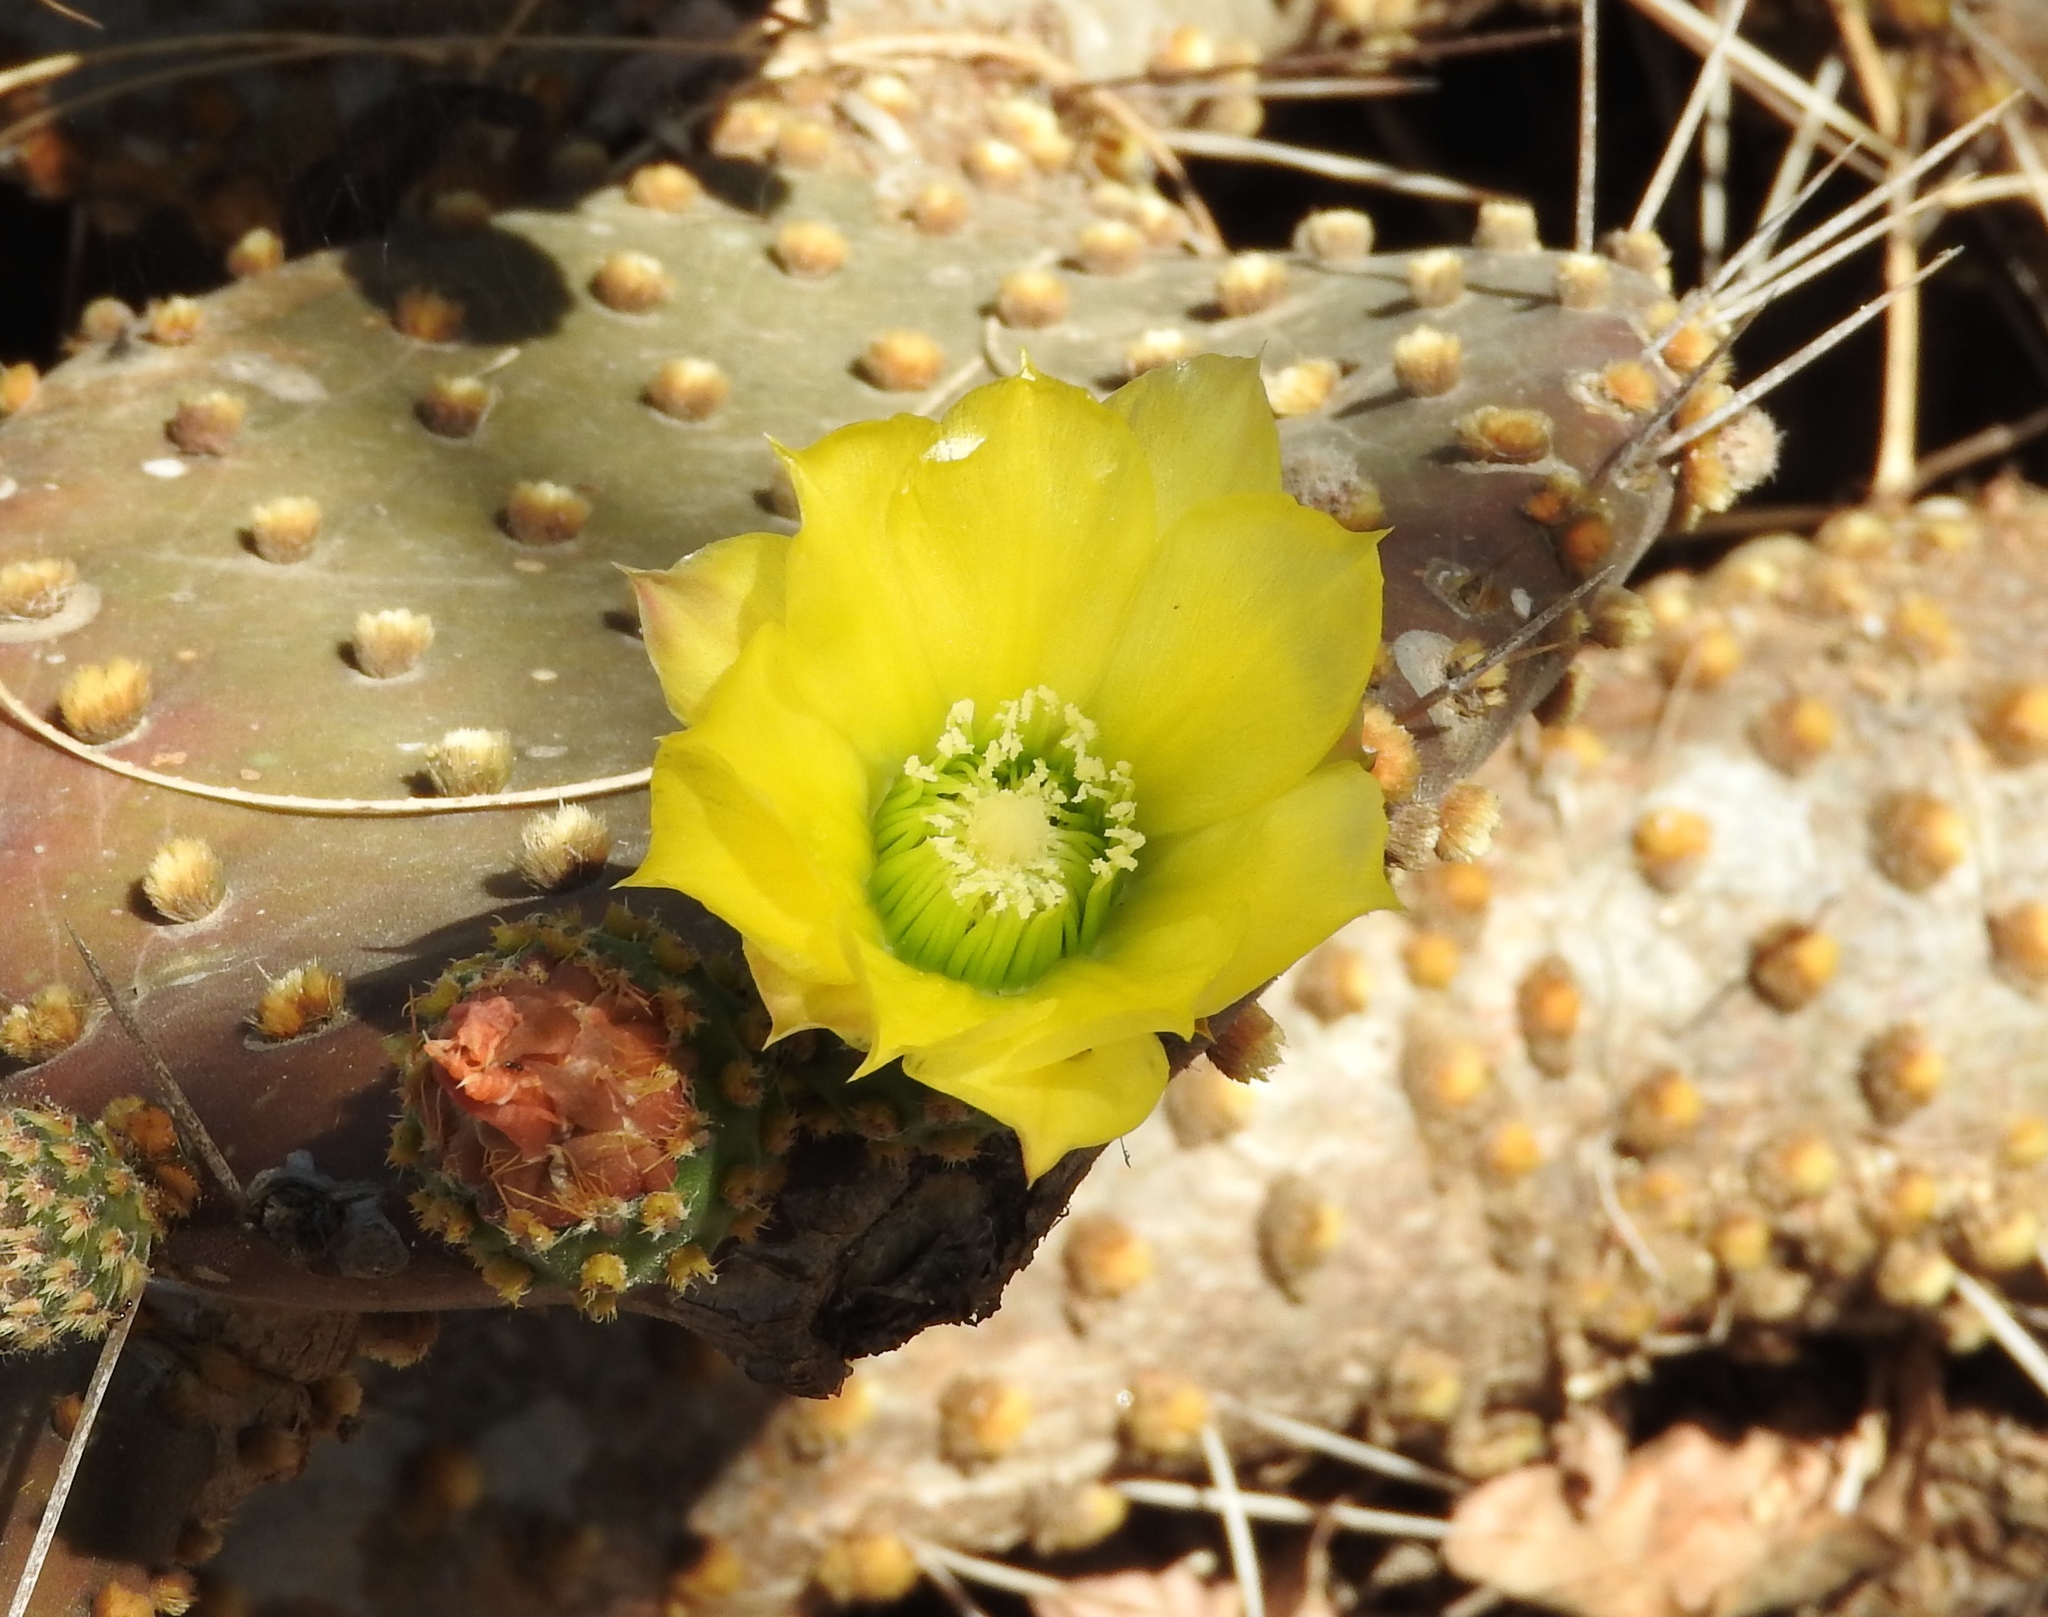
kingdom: Plantae
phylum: Tracheophyta
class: Magnoliopsida
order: Caryophyllales
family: Cactaceae
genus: Opuntia
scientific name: Opuntia decumbens
